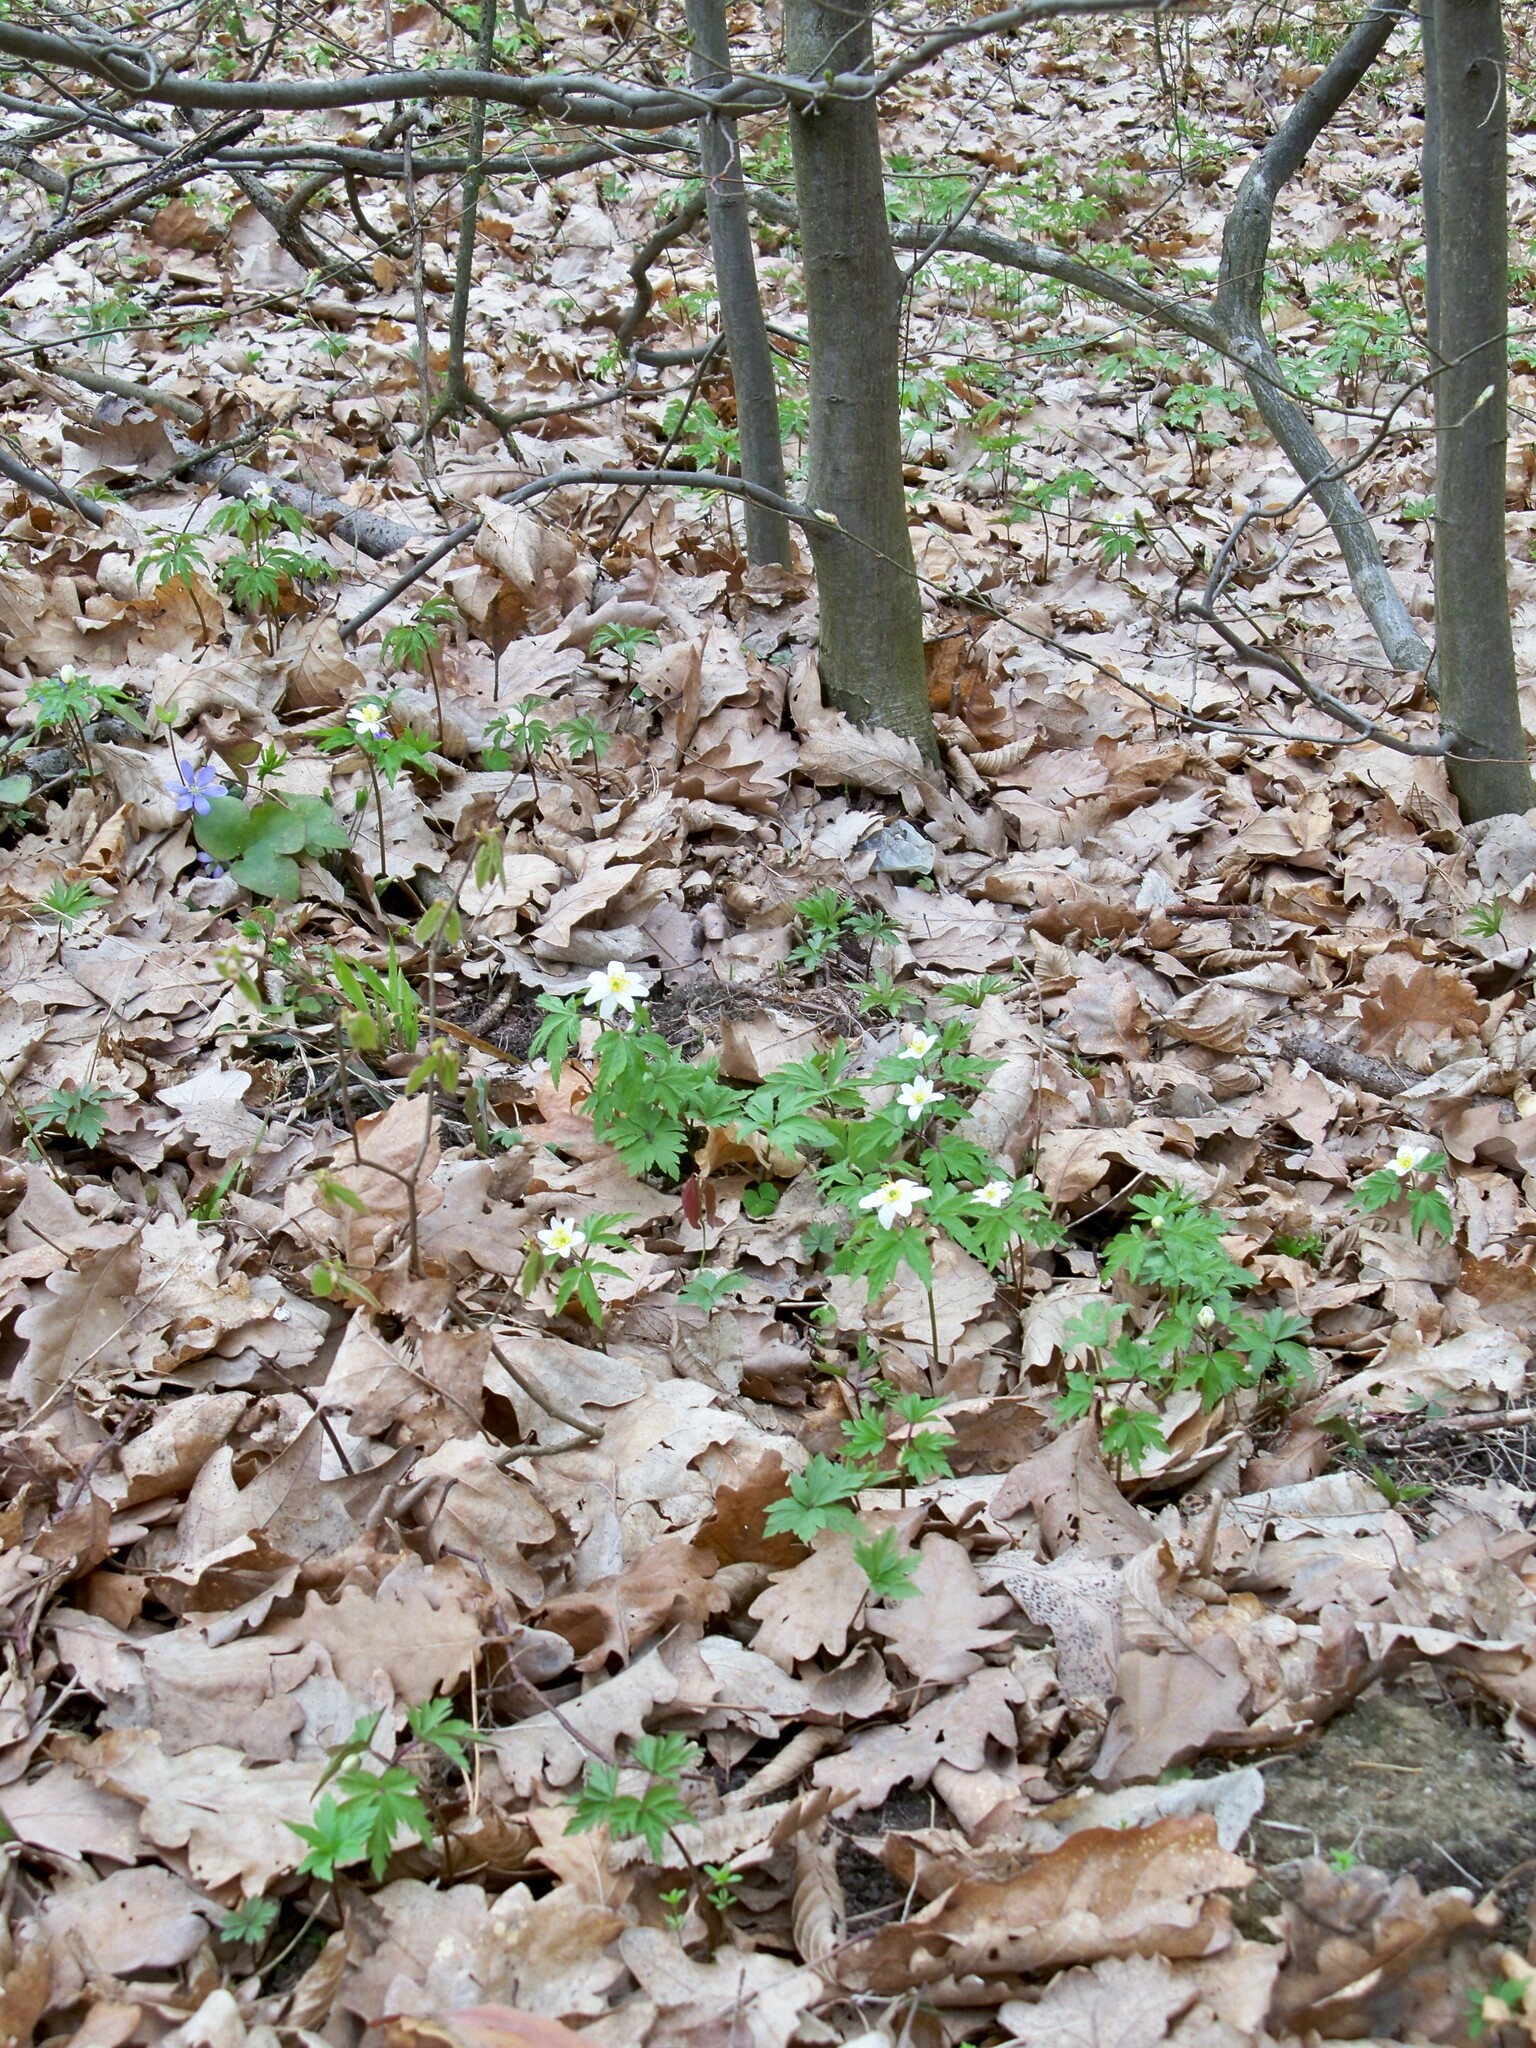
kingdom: Plantae
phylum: Tracheophyta
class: Magnoliopsida
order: Ranunculales
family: Ranunculaceae
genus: Anemone
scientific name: Anemone nemorosa
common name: Wood anemone
